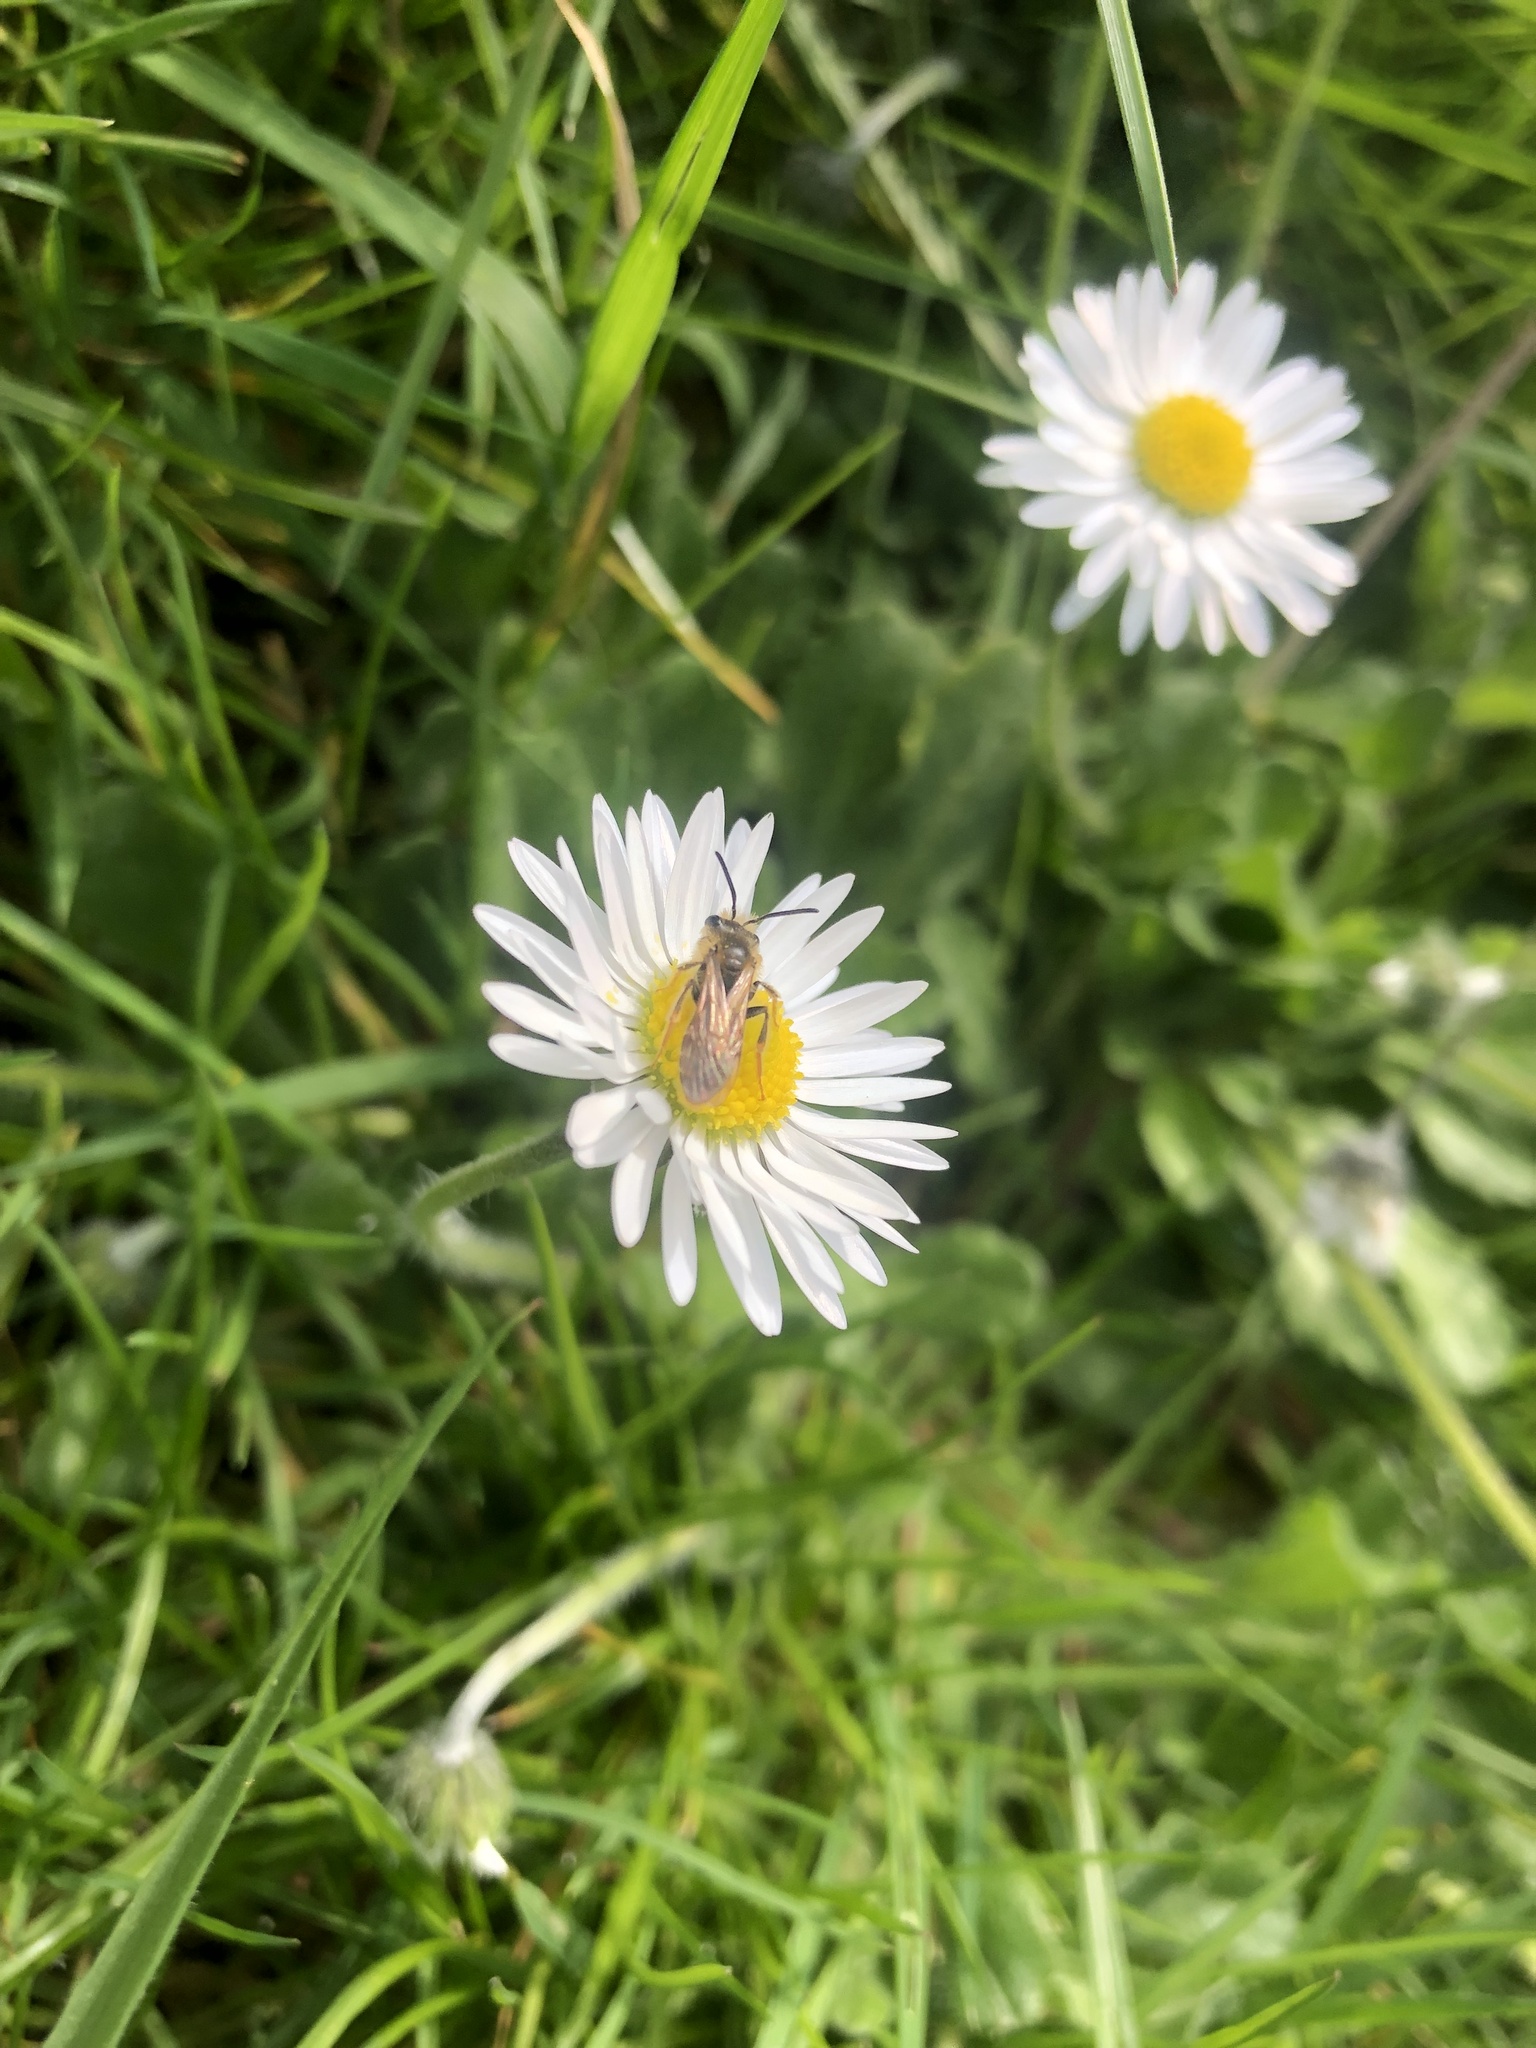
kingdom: Plantae
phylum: Tracheophyta
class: Magnoliopsida
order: Asterales
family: Asteraceae
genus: Bellis
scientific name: Bellis perennis
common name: Lawndaisy
